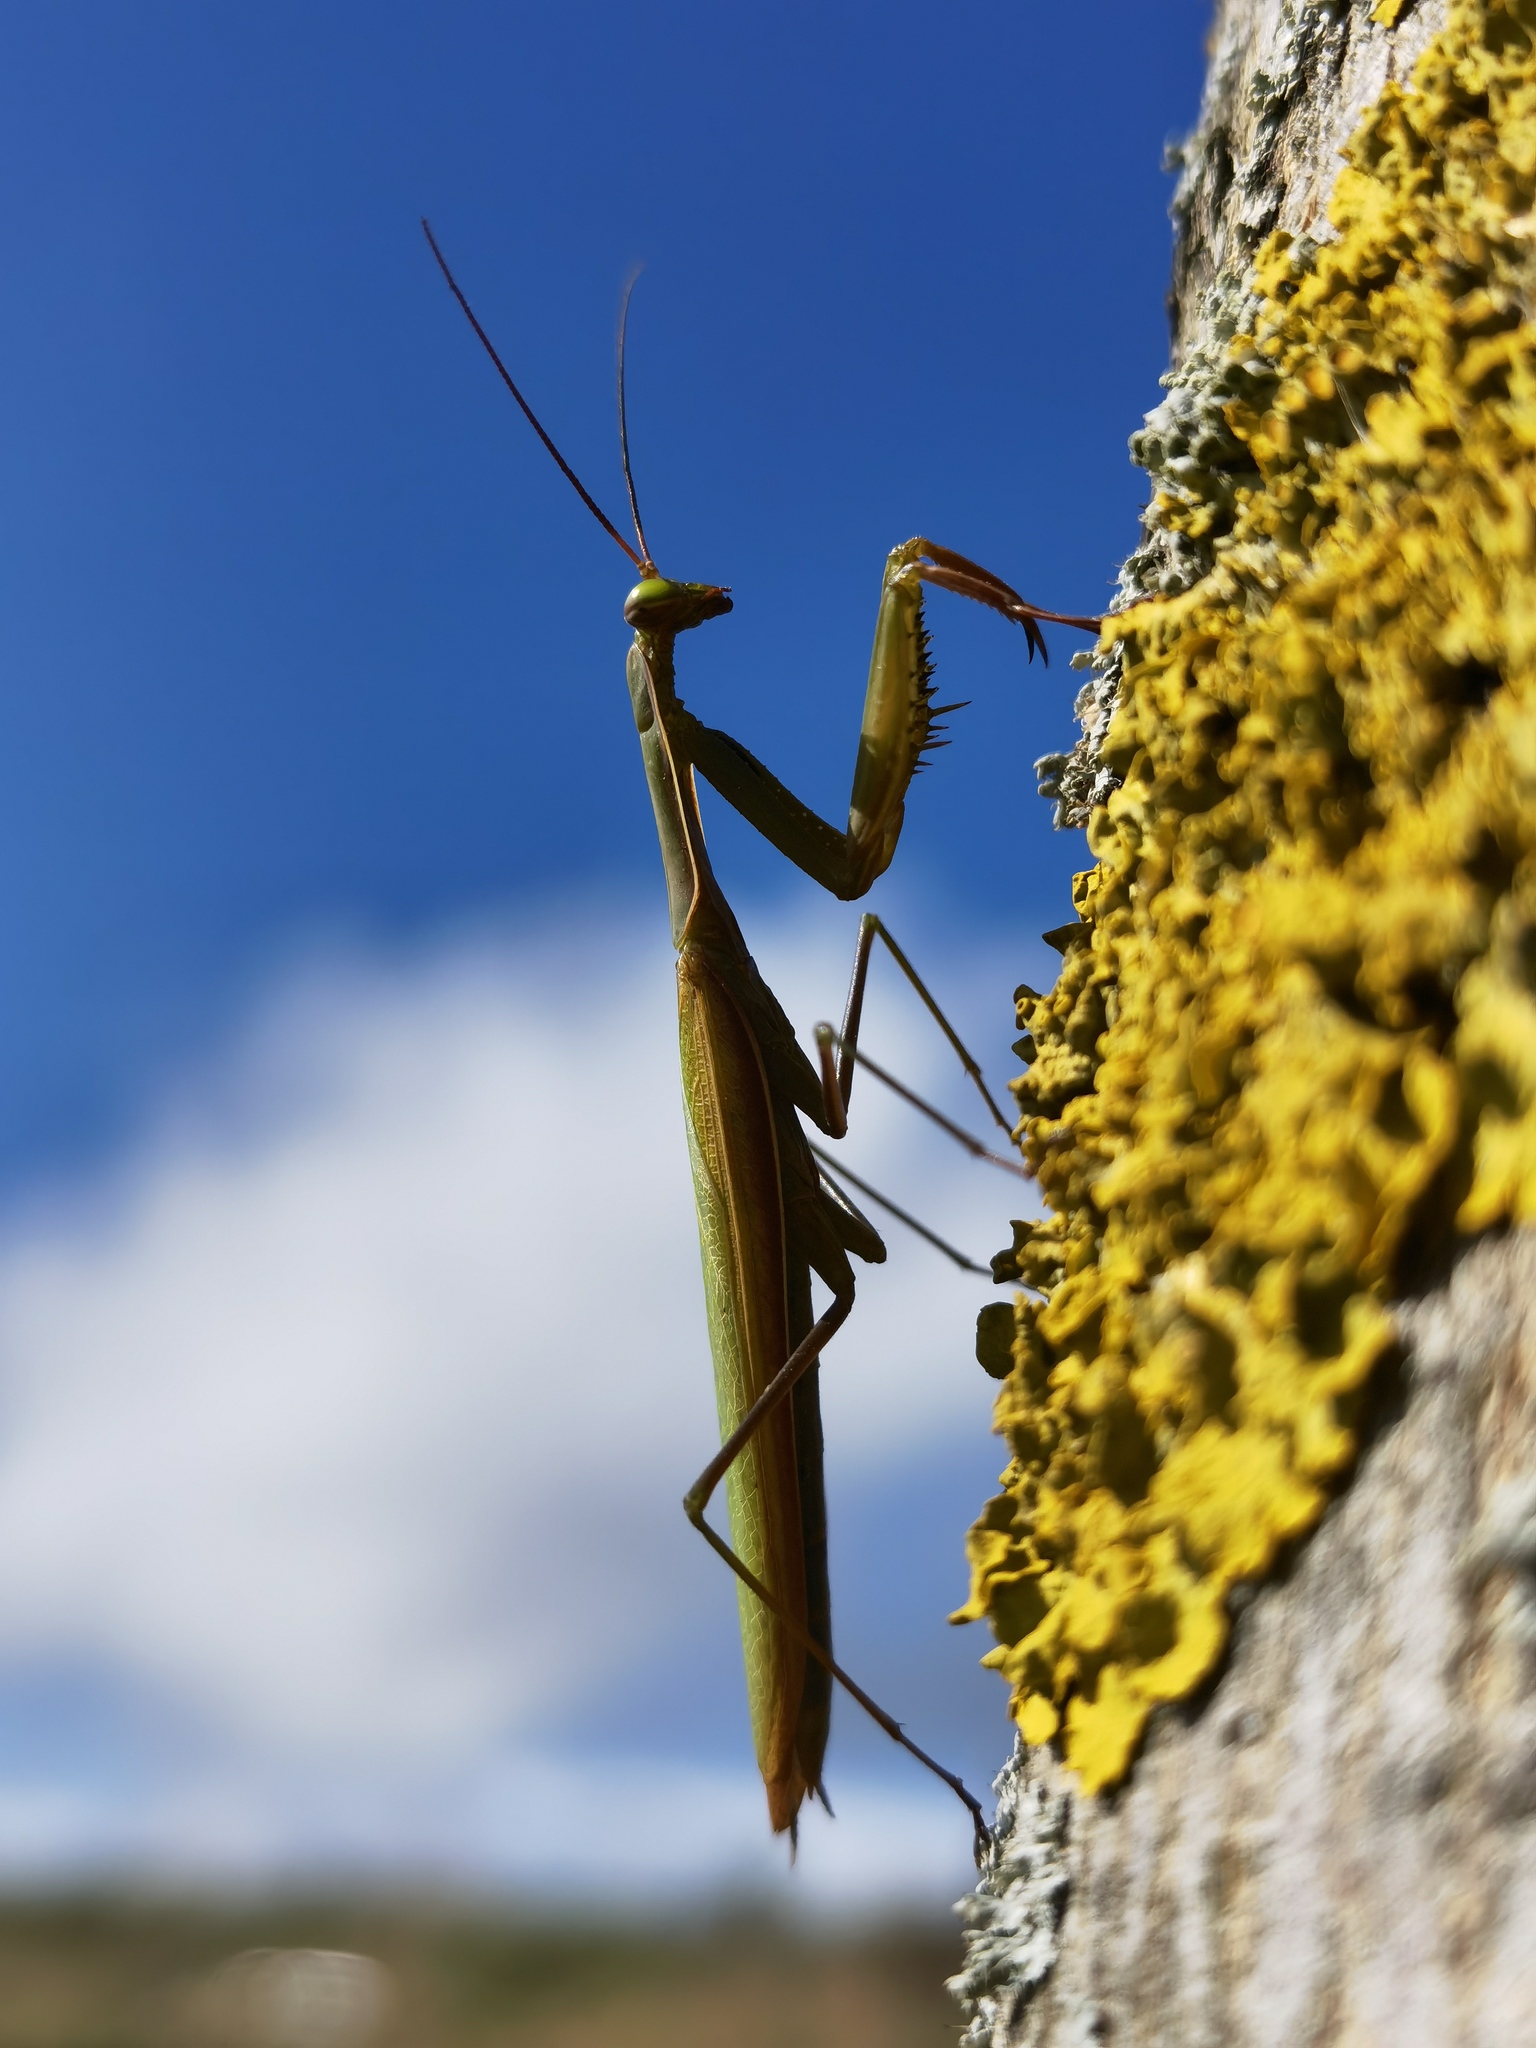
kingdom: Animalia
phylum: Arthropoda
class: Insecta
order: Mantodea
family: Mantidae
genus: Mantis
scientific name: Mantis religiosa
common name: Praying mantis
